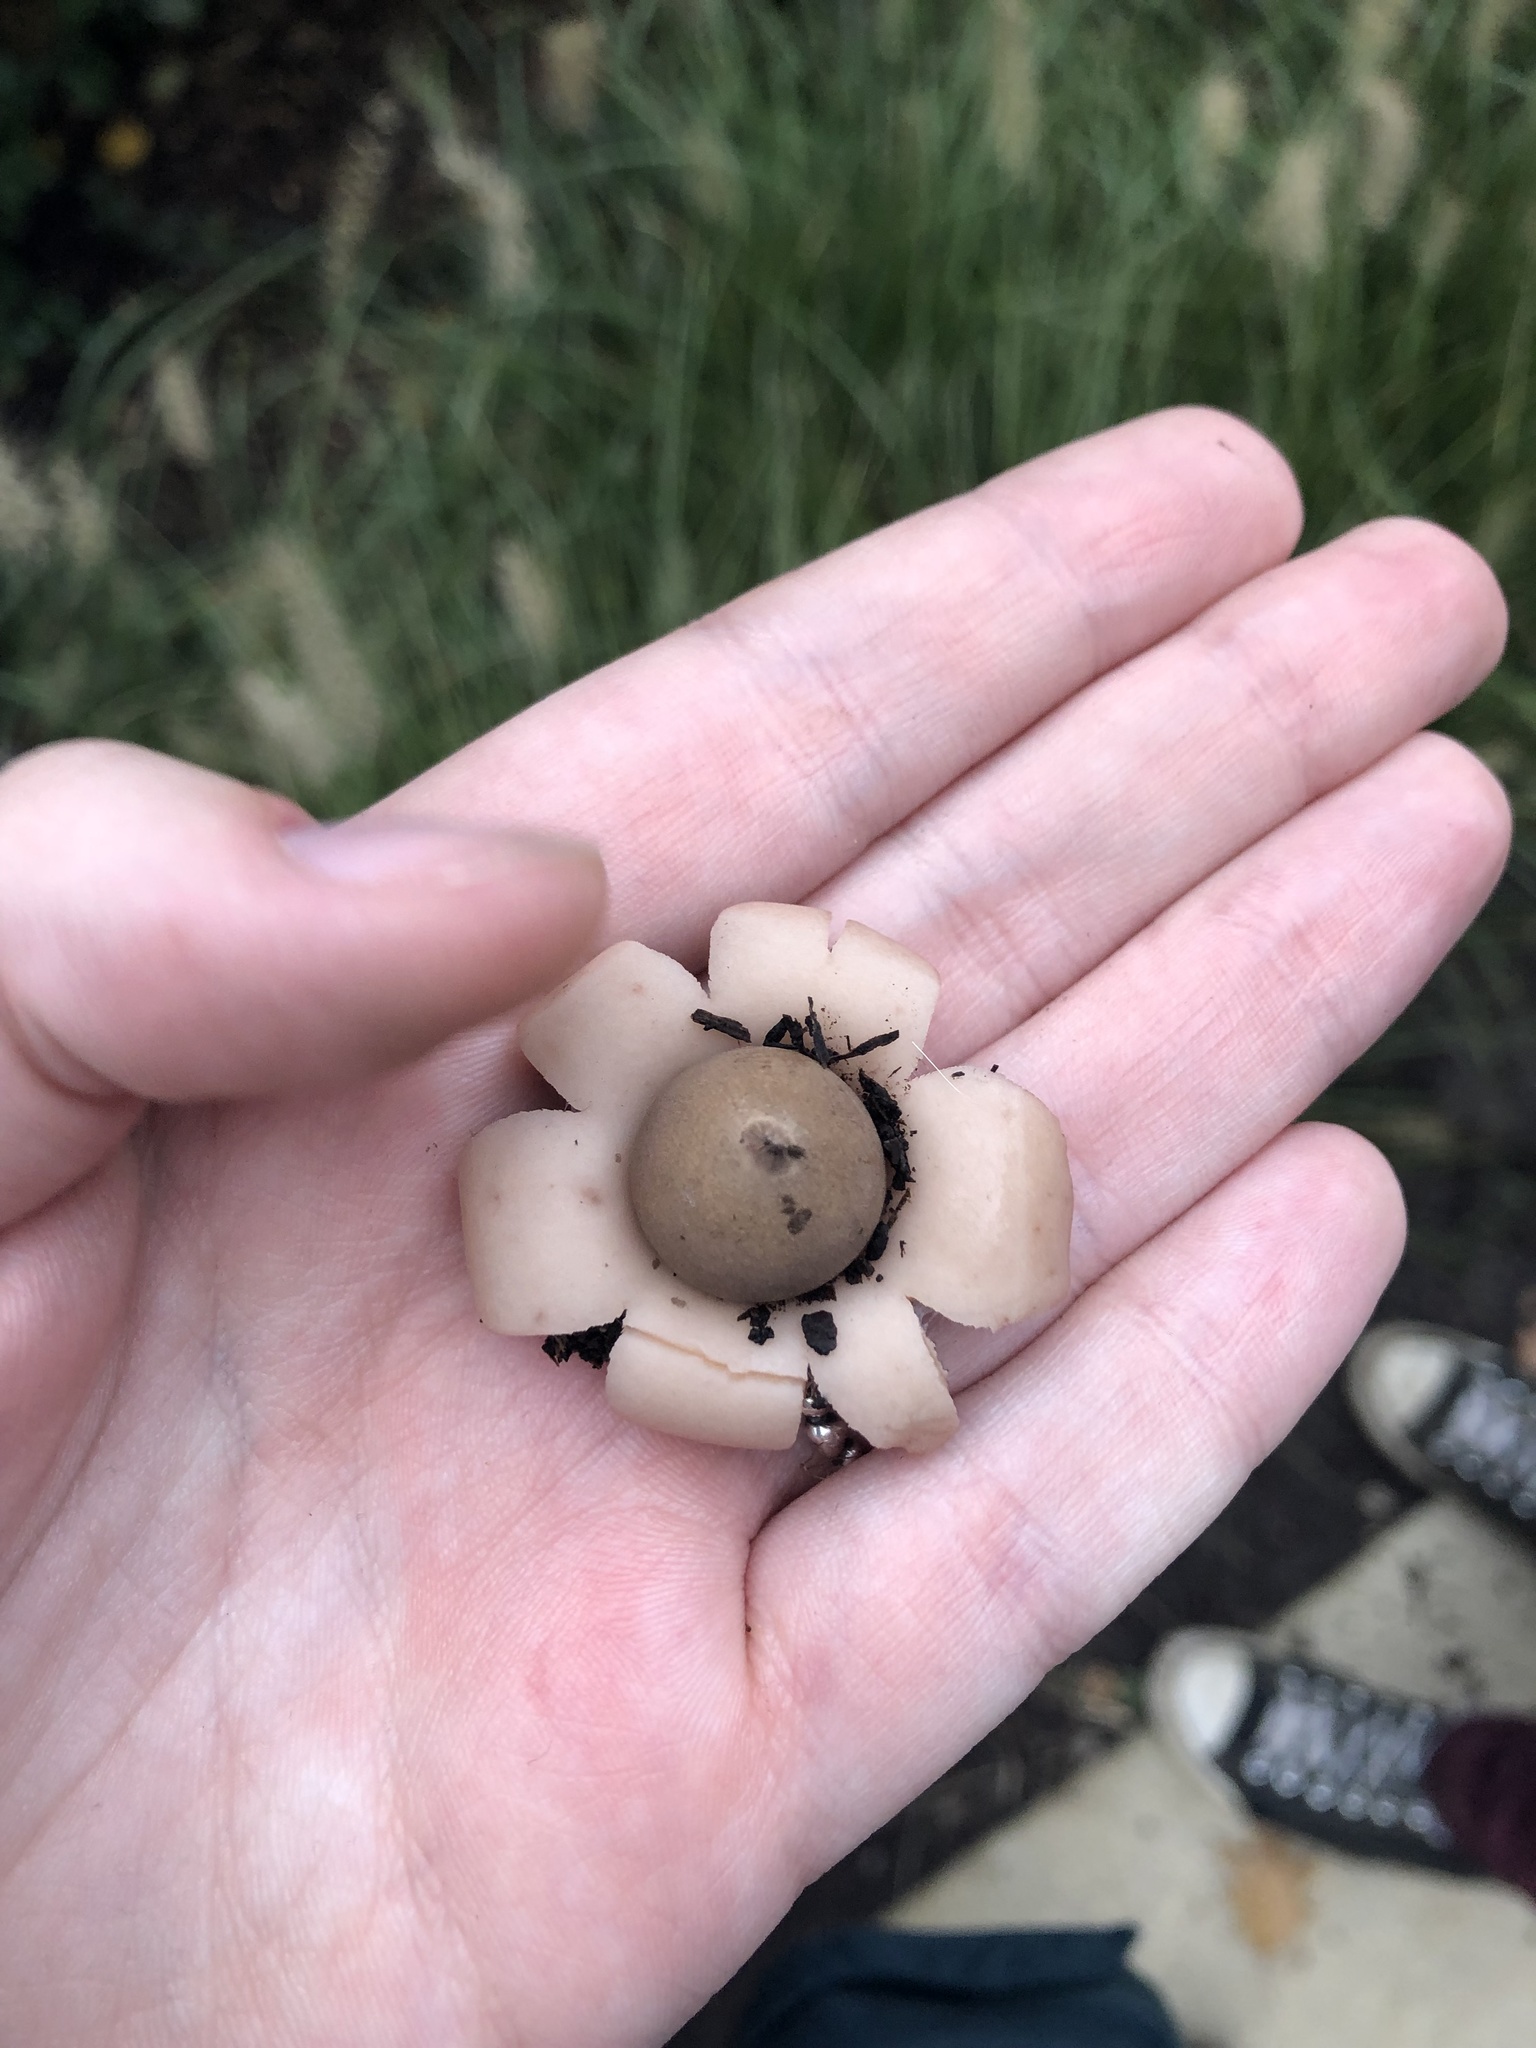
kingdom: Fungi
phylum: Basidiomycota
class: Agaricomycetes
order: Geastrales
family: Geastraceae
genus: Geastrum
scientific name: Geastrum saccatum
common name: Rounded earthstar
